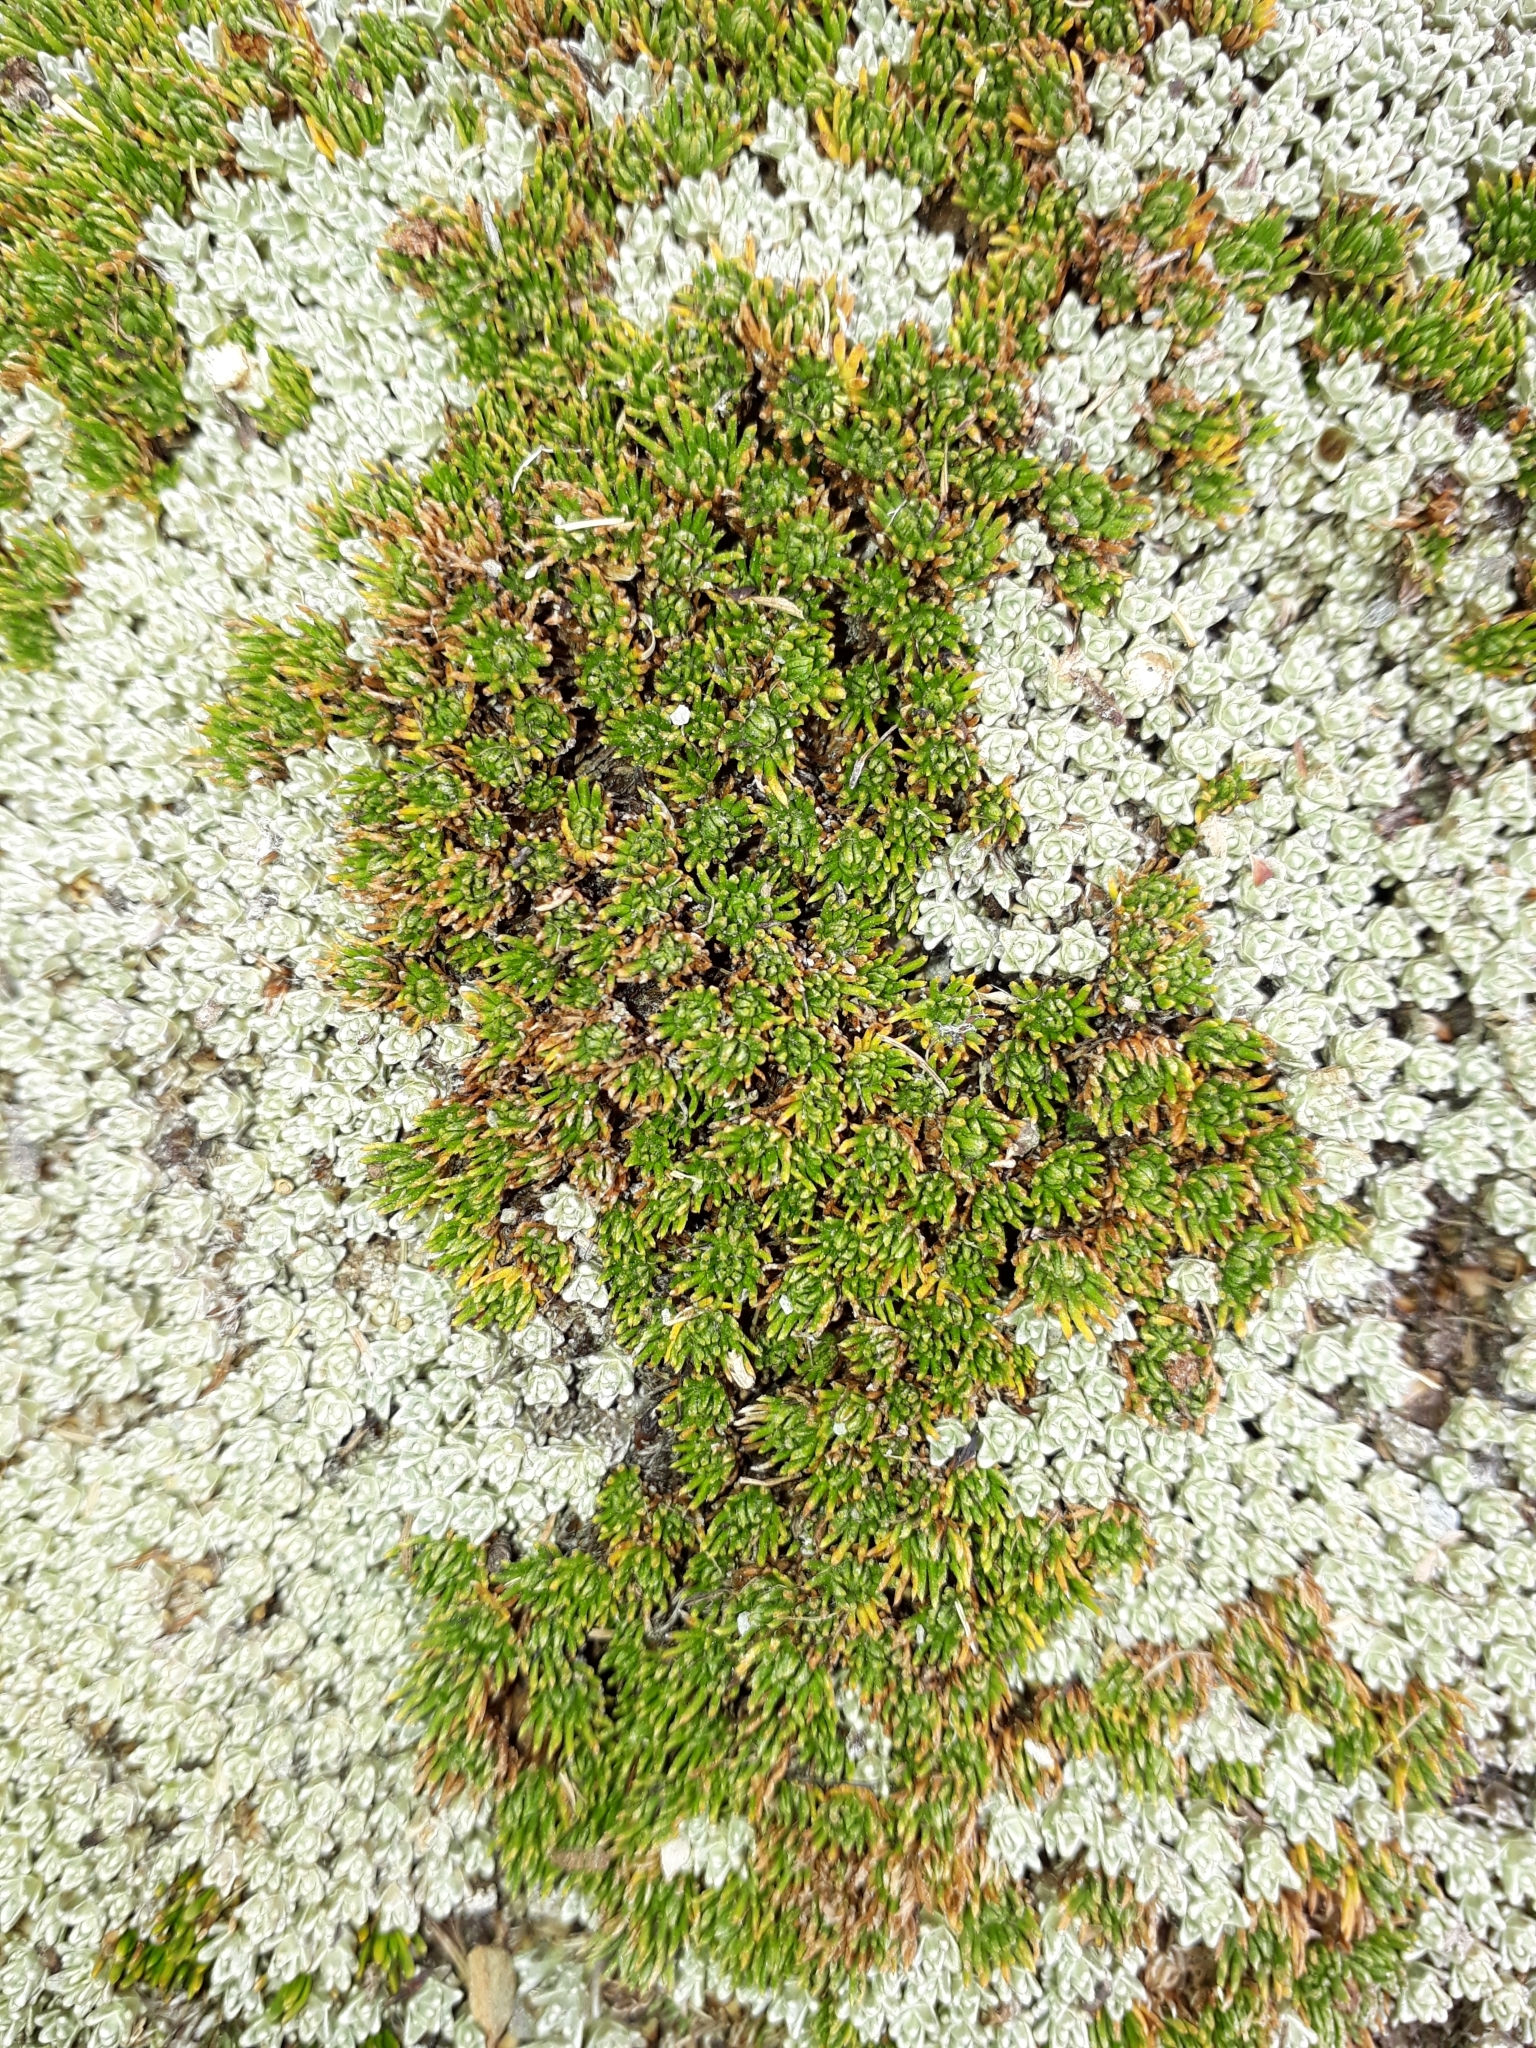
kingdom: Plantae
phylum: Tracheophyta
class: Magnoliopsida
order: Asterales
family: Asteraceae
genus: Leptinella
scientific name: Leptinella goyenii
